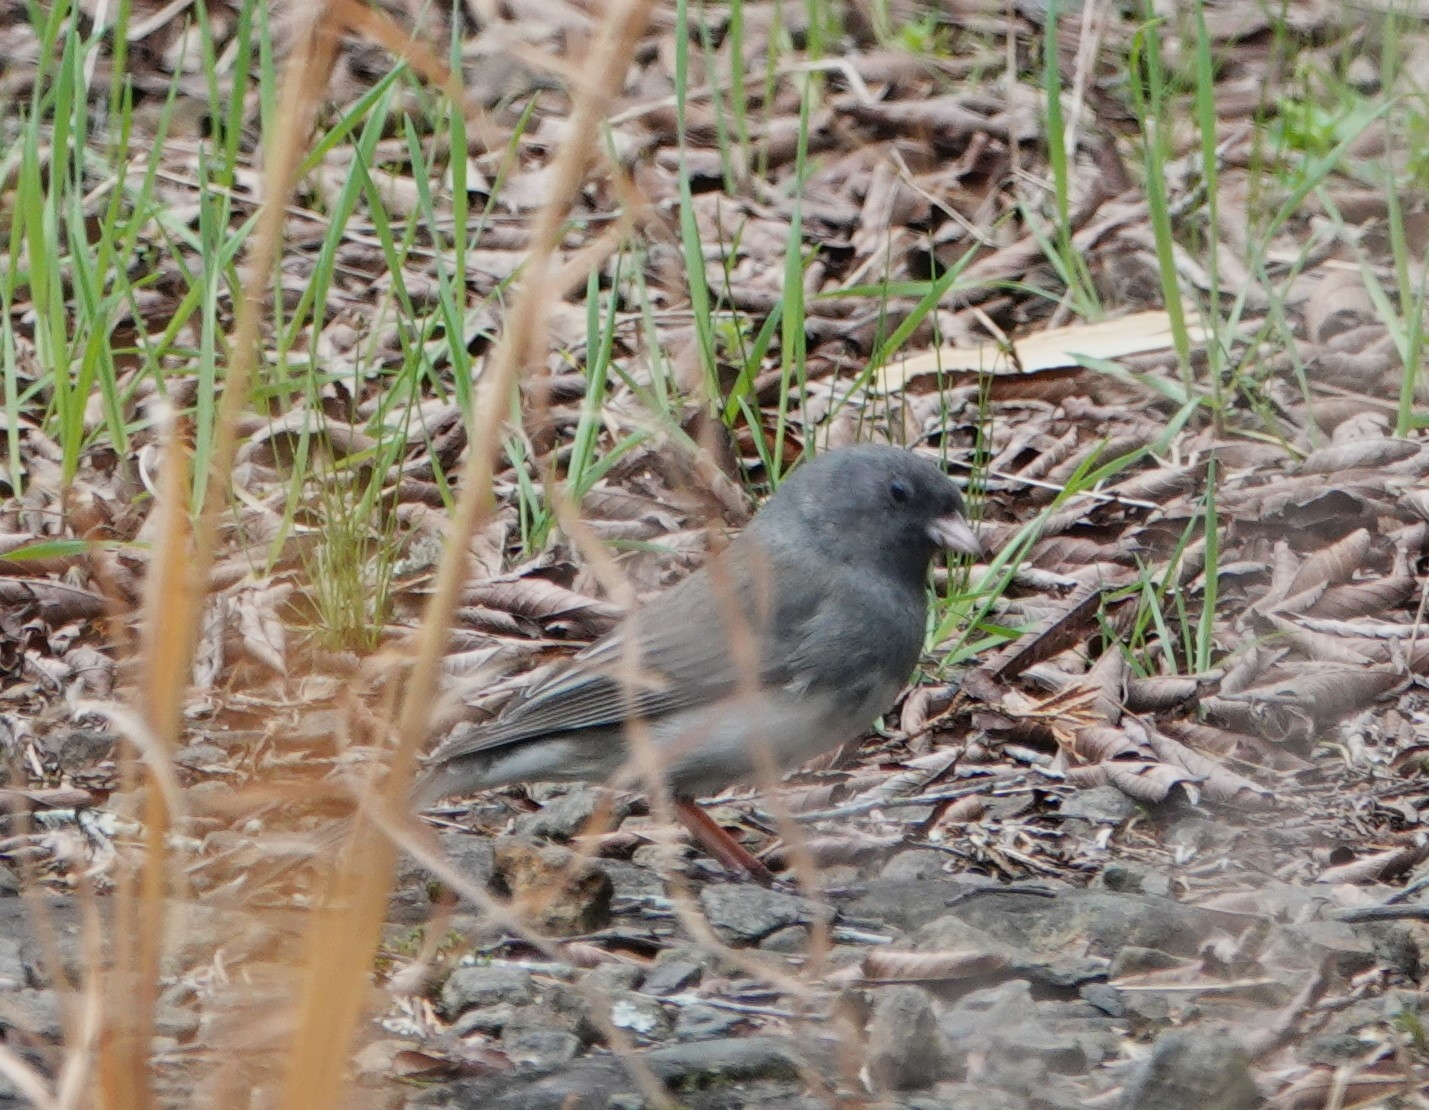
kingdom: Animalia
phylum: Chordata
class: Aves
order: Passeriformes
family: Passerellidae
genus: Junco
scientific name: Junco hyemalis
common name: Dark-eyed junco
